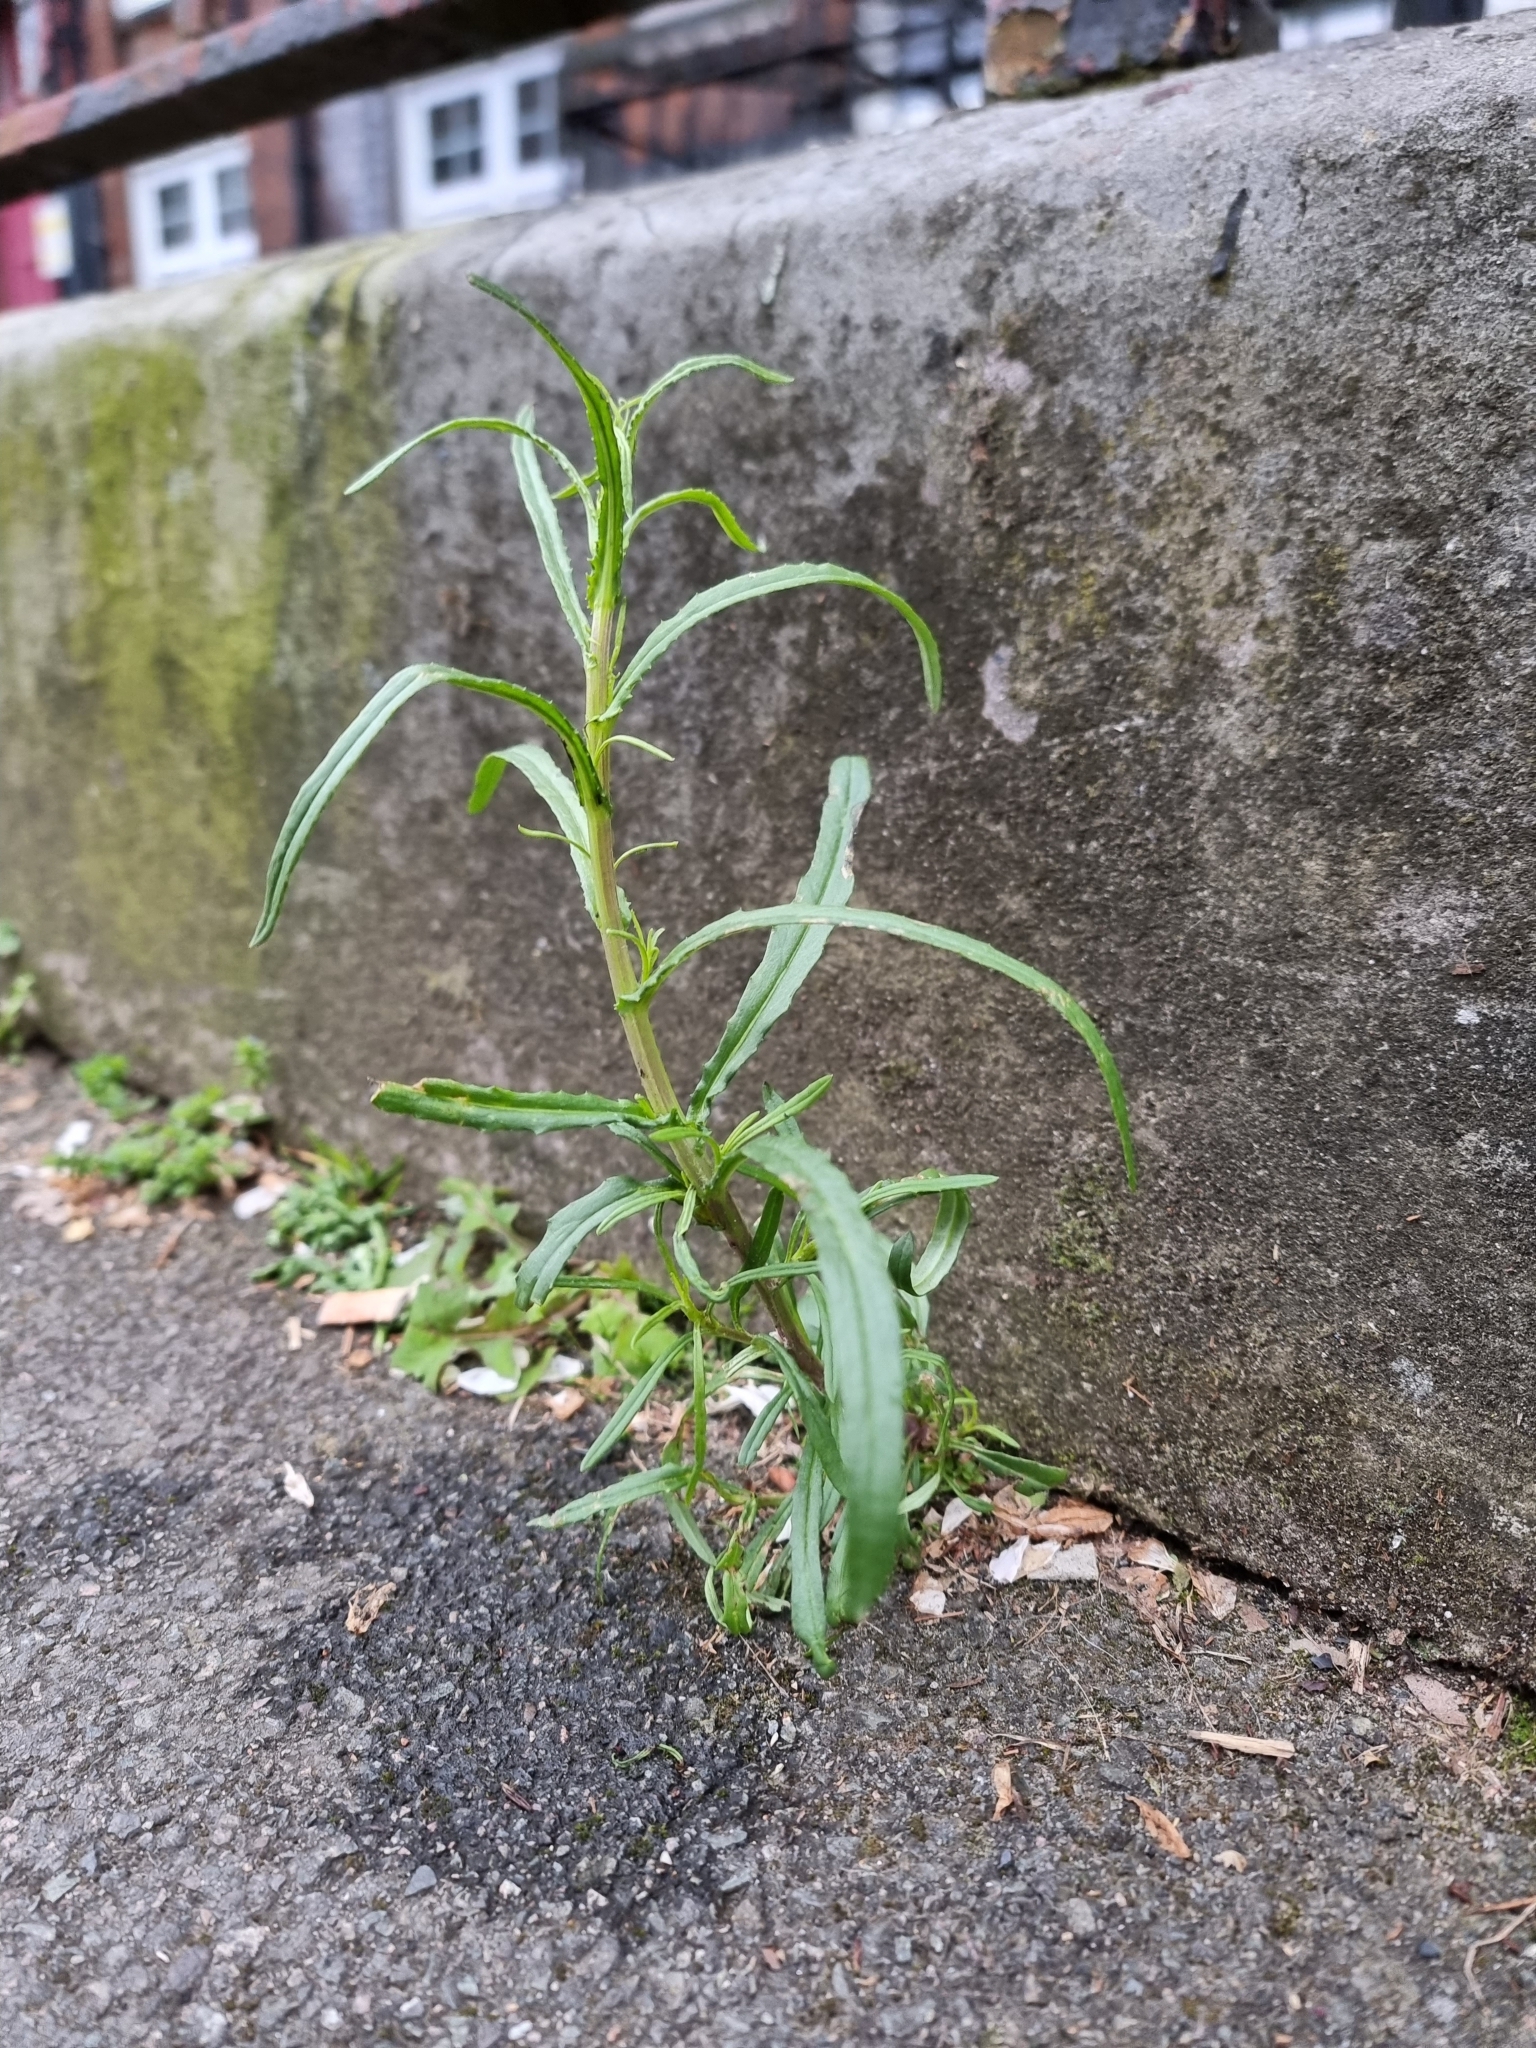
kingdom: Plantae
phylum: Tracheophyta
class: Magnoliopsida
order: Asterales
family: Asteraceae
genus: Senecio
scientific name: Senecio inaequidens
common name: Narrow-leaved ragwort
